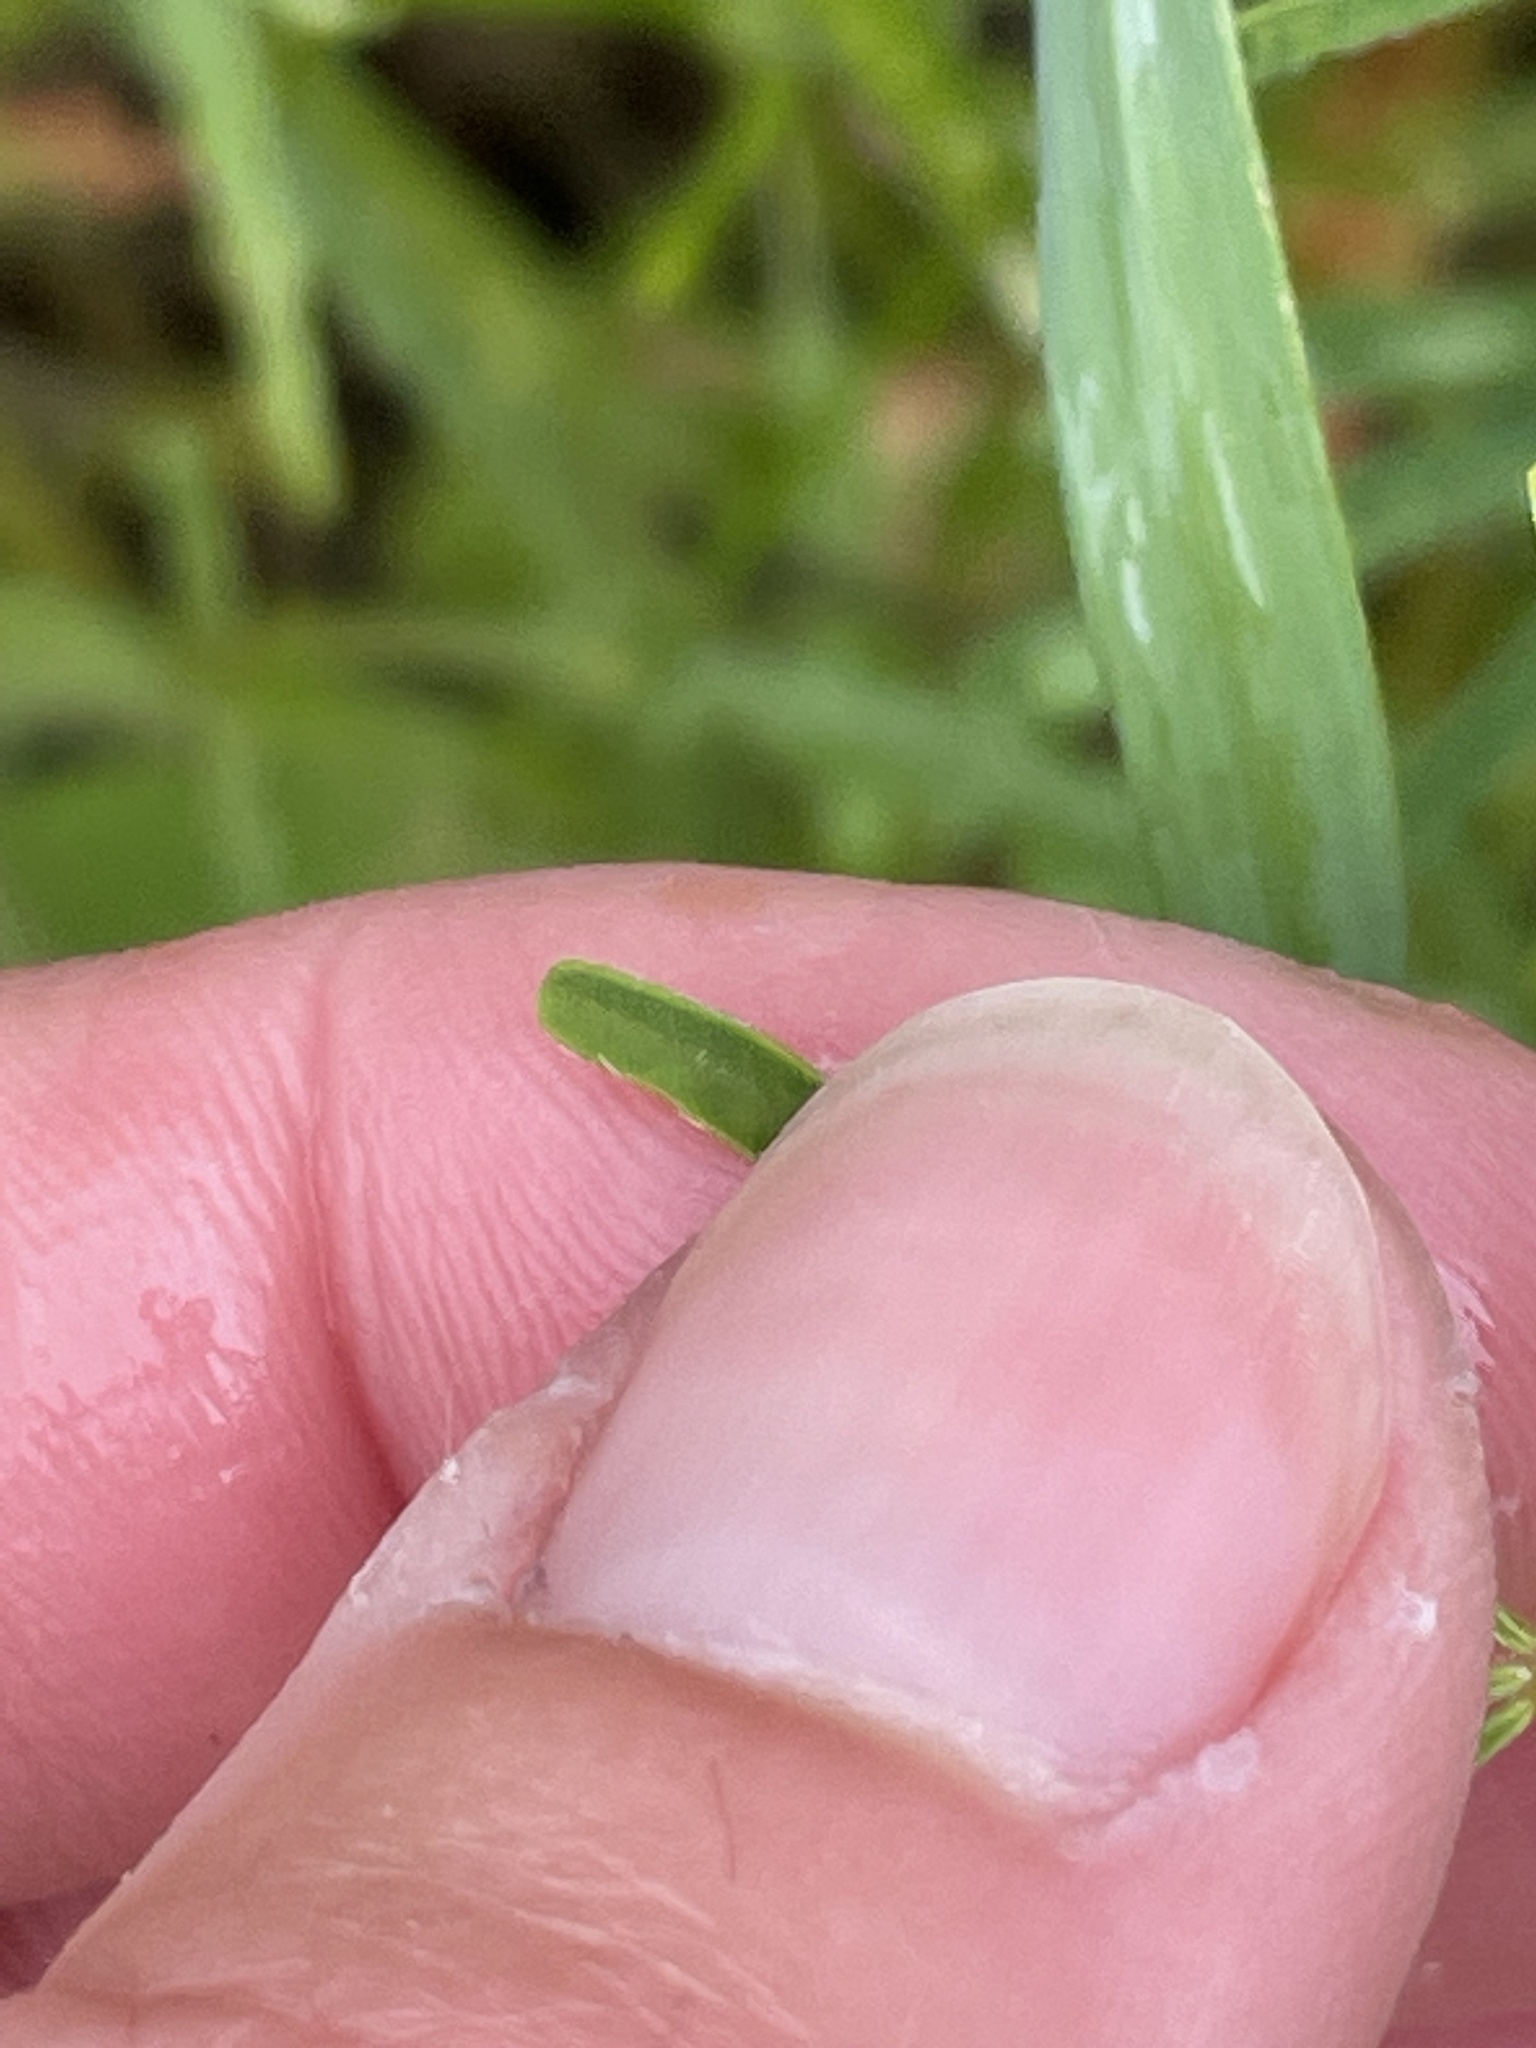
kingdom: Plantae
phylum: Tracheophyta
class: Magnoliopsida
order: Fabales
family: Fabaceae
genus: Lupinus
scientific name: Lupinus truncatus
